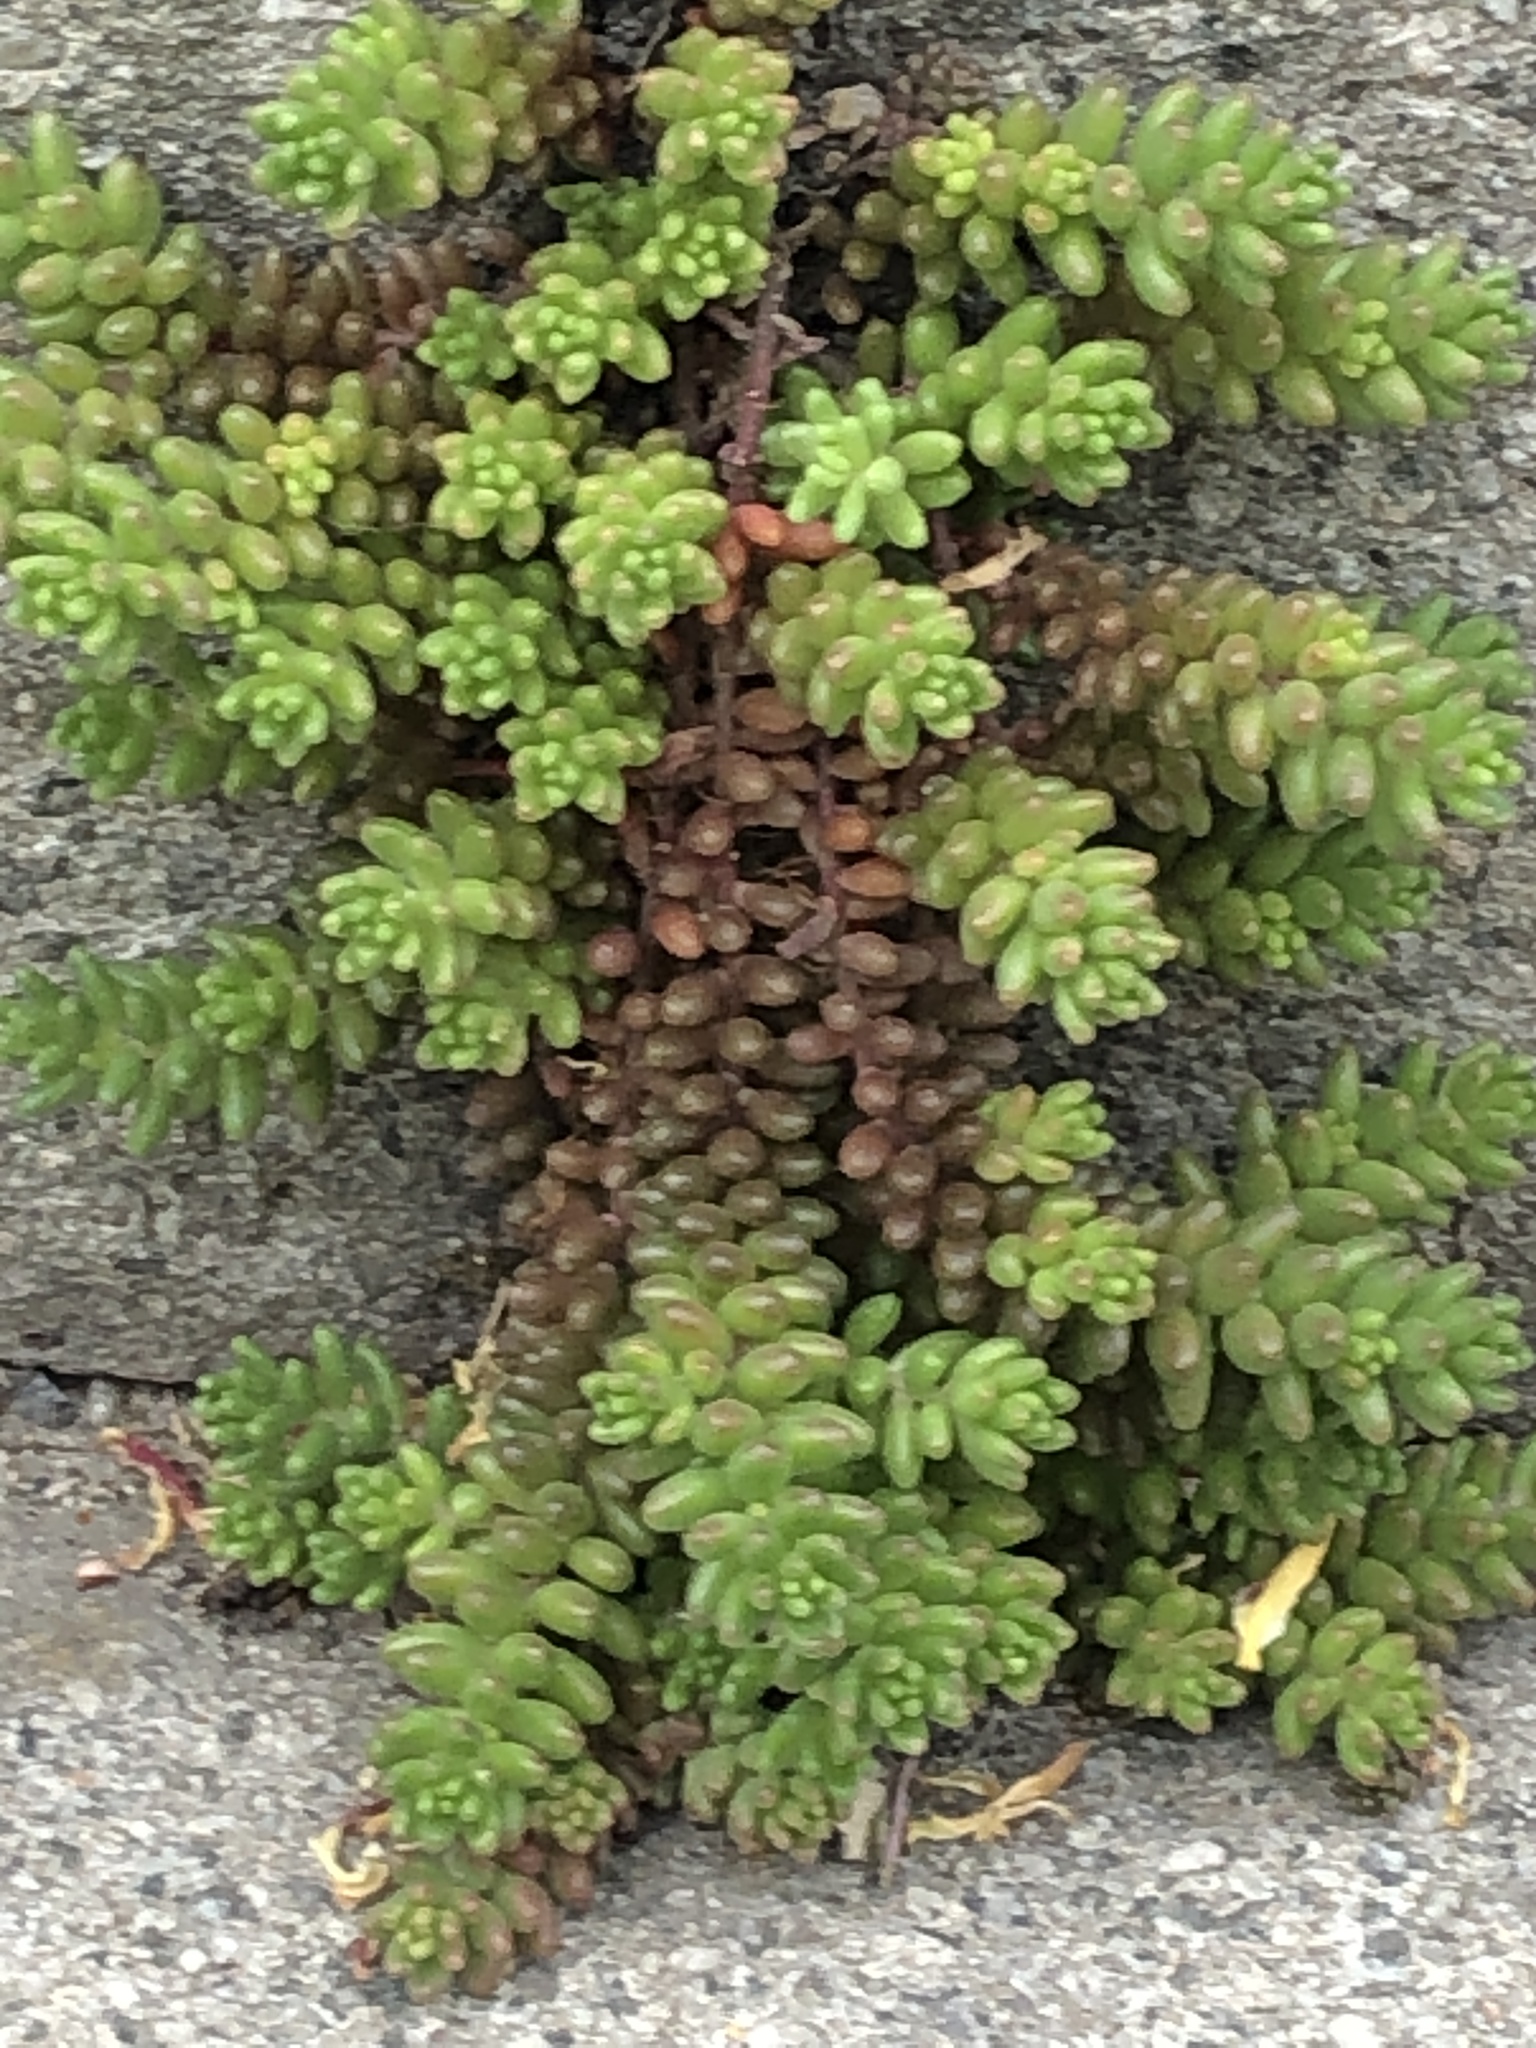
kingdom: Plantae
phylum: Tracheophyta
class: Magnoliopsida
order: Saxifragales
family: Crassulaceae
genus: Sedum
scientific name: Sedum album
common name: White stonecrop
